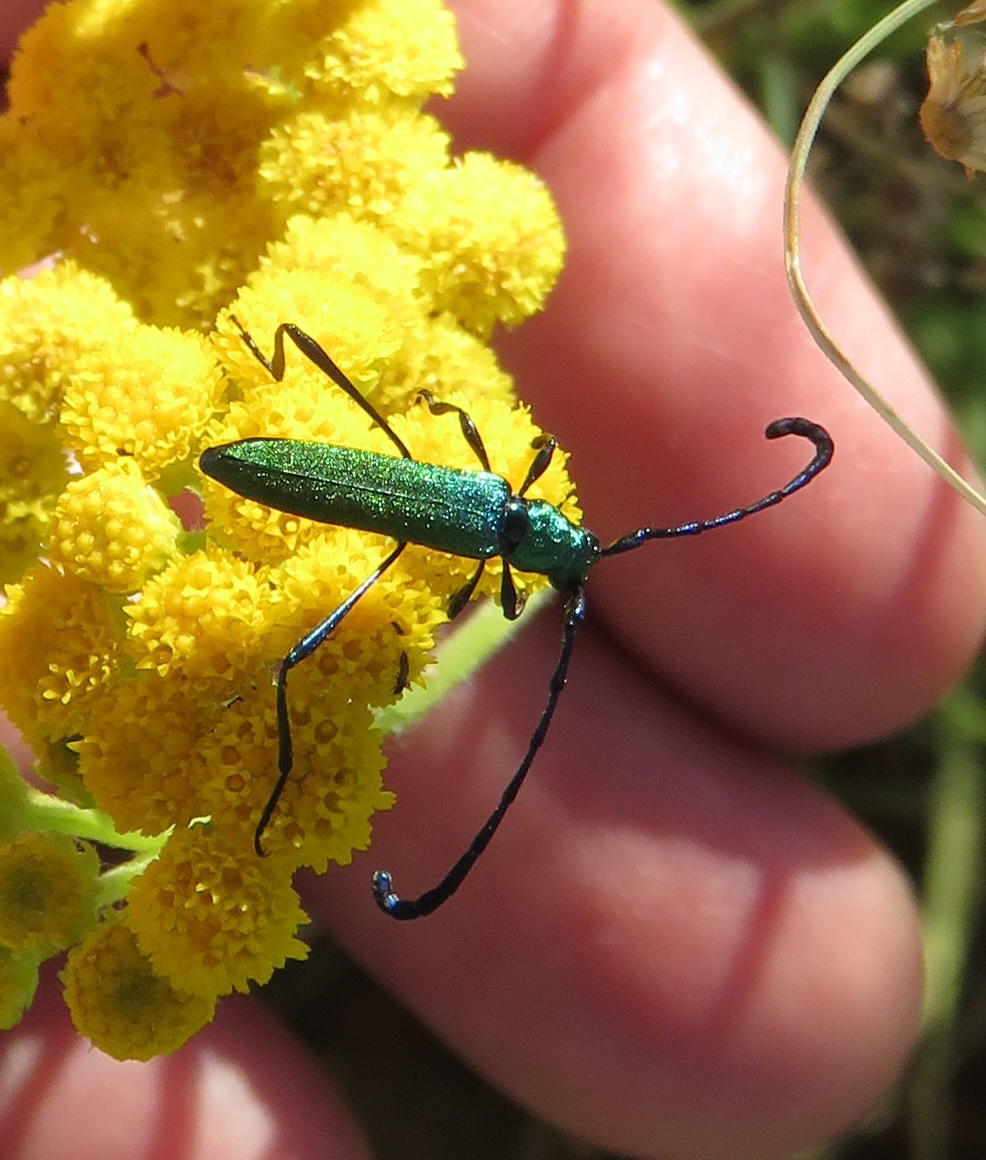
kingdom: Animalia
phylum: Arthropoda
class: Insecta
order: Coleoptera
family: Cerambycidae
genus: Hypocrites
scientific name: Hypocrites
